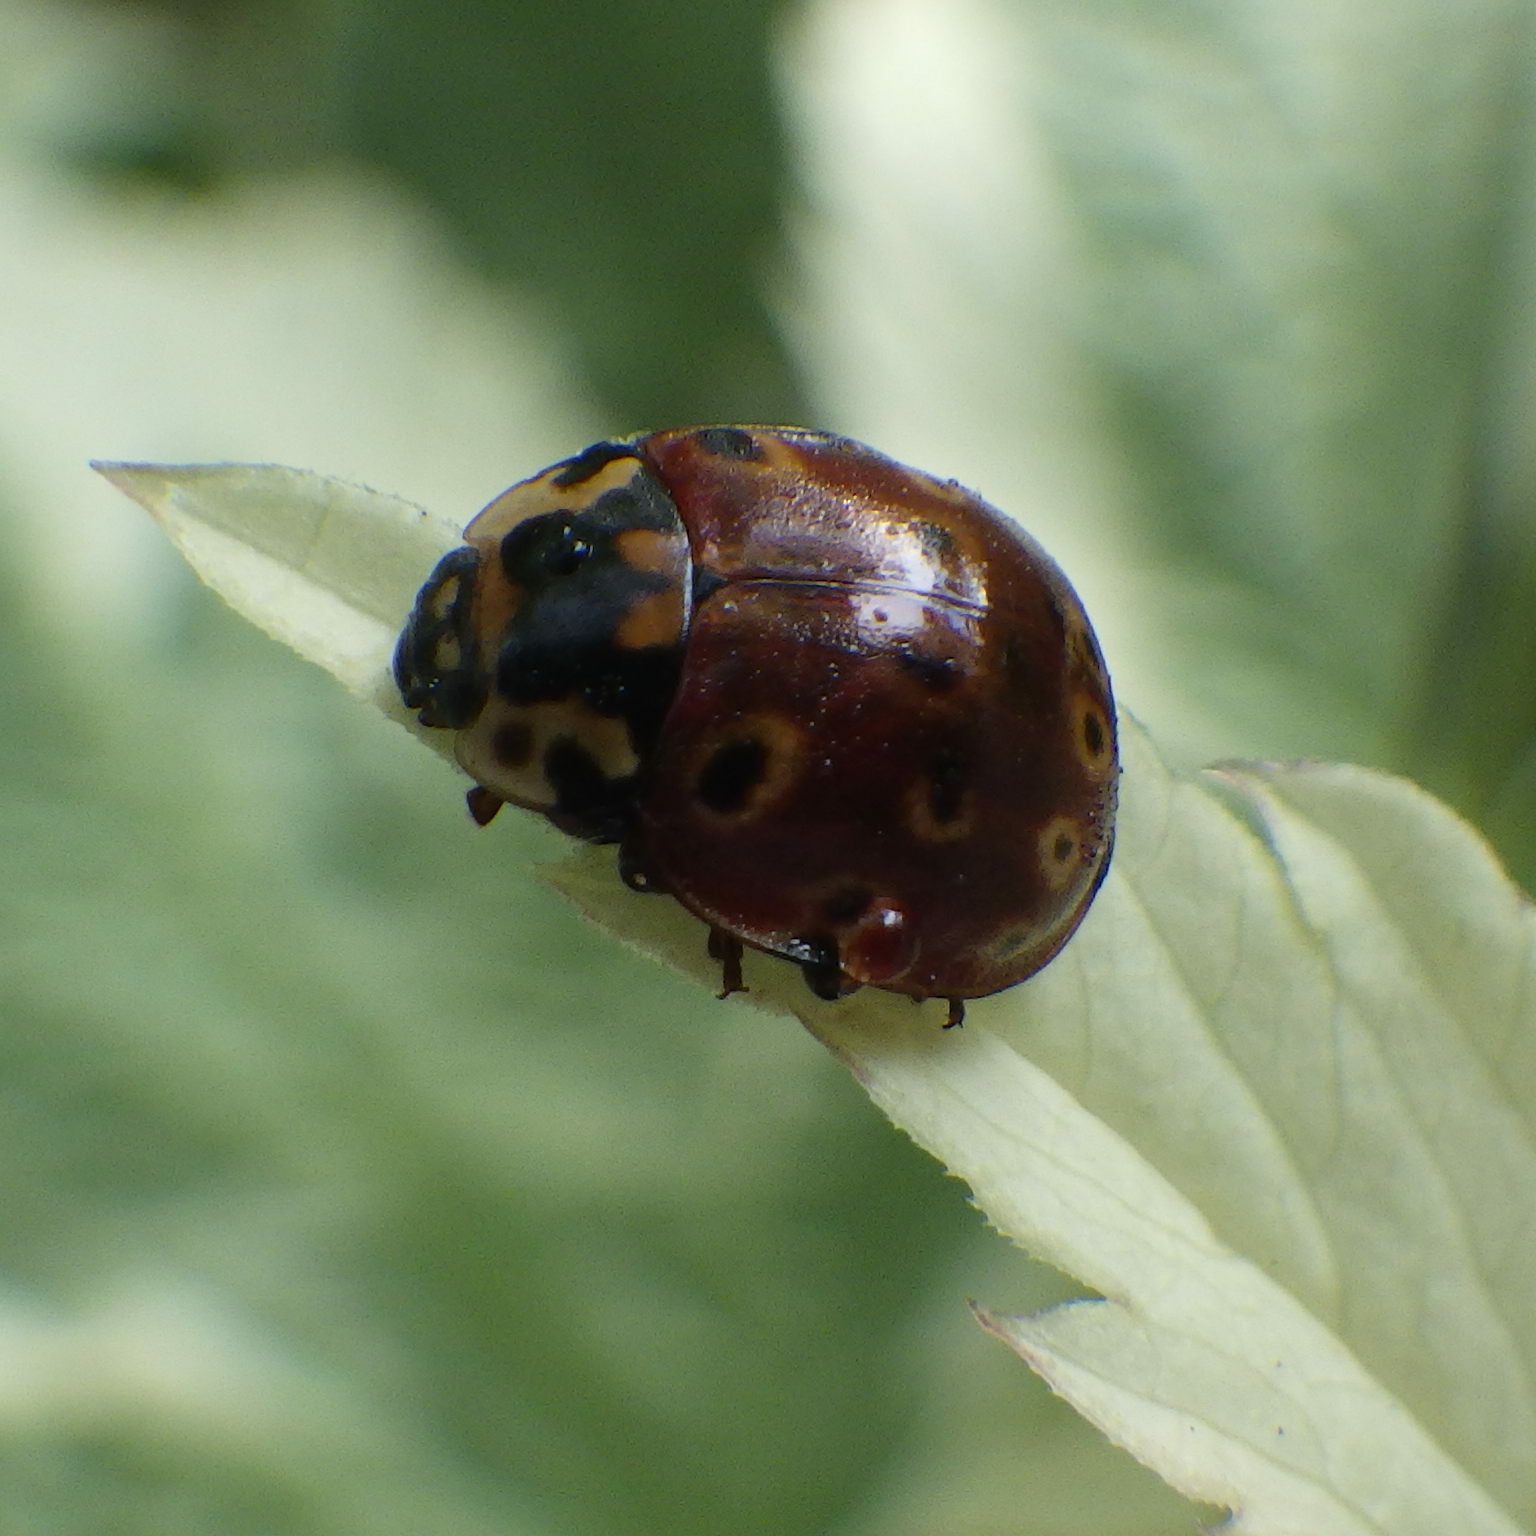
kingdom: Animalia
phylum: Arthropoda
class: Insecta
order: Coleoptera
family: Coccinellidae
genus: Anatis
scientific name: Anatis mali
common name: Eye-spotted lady beetle
